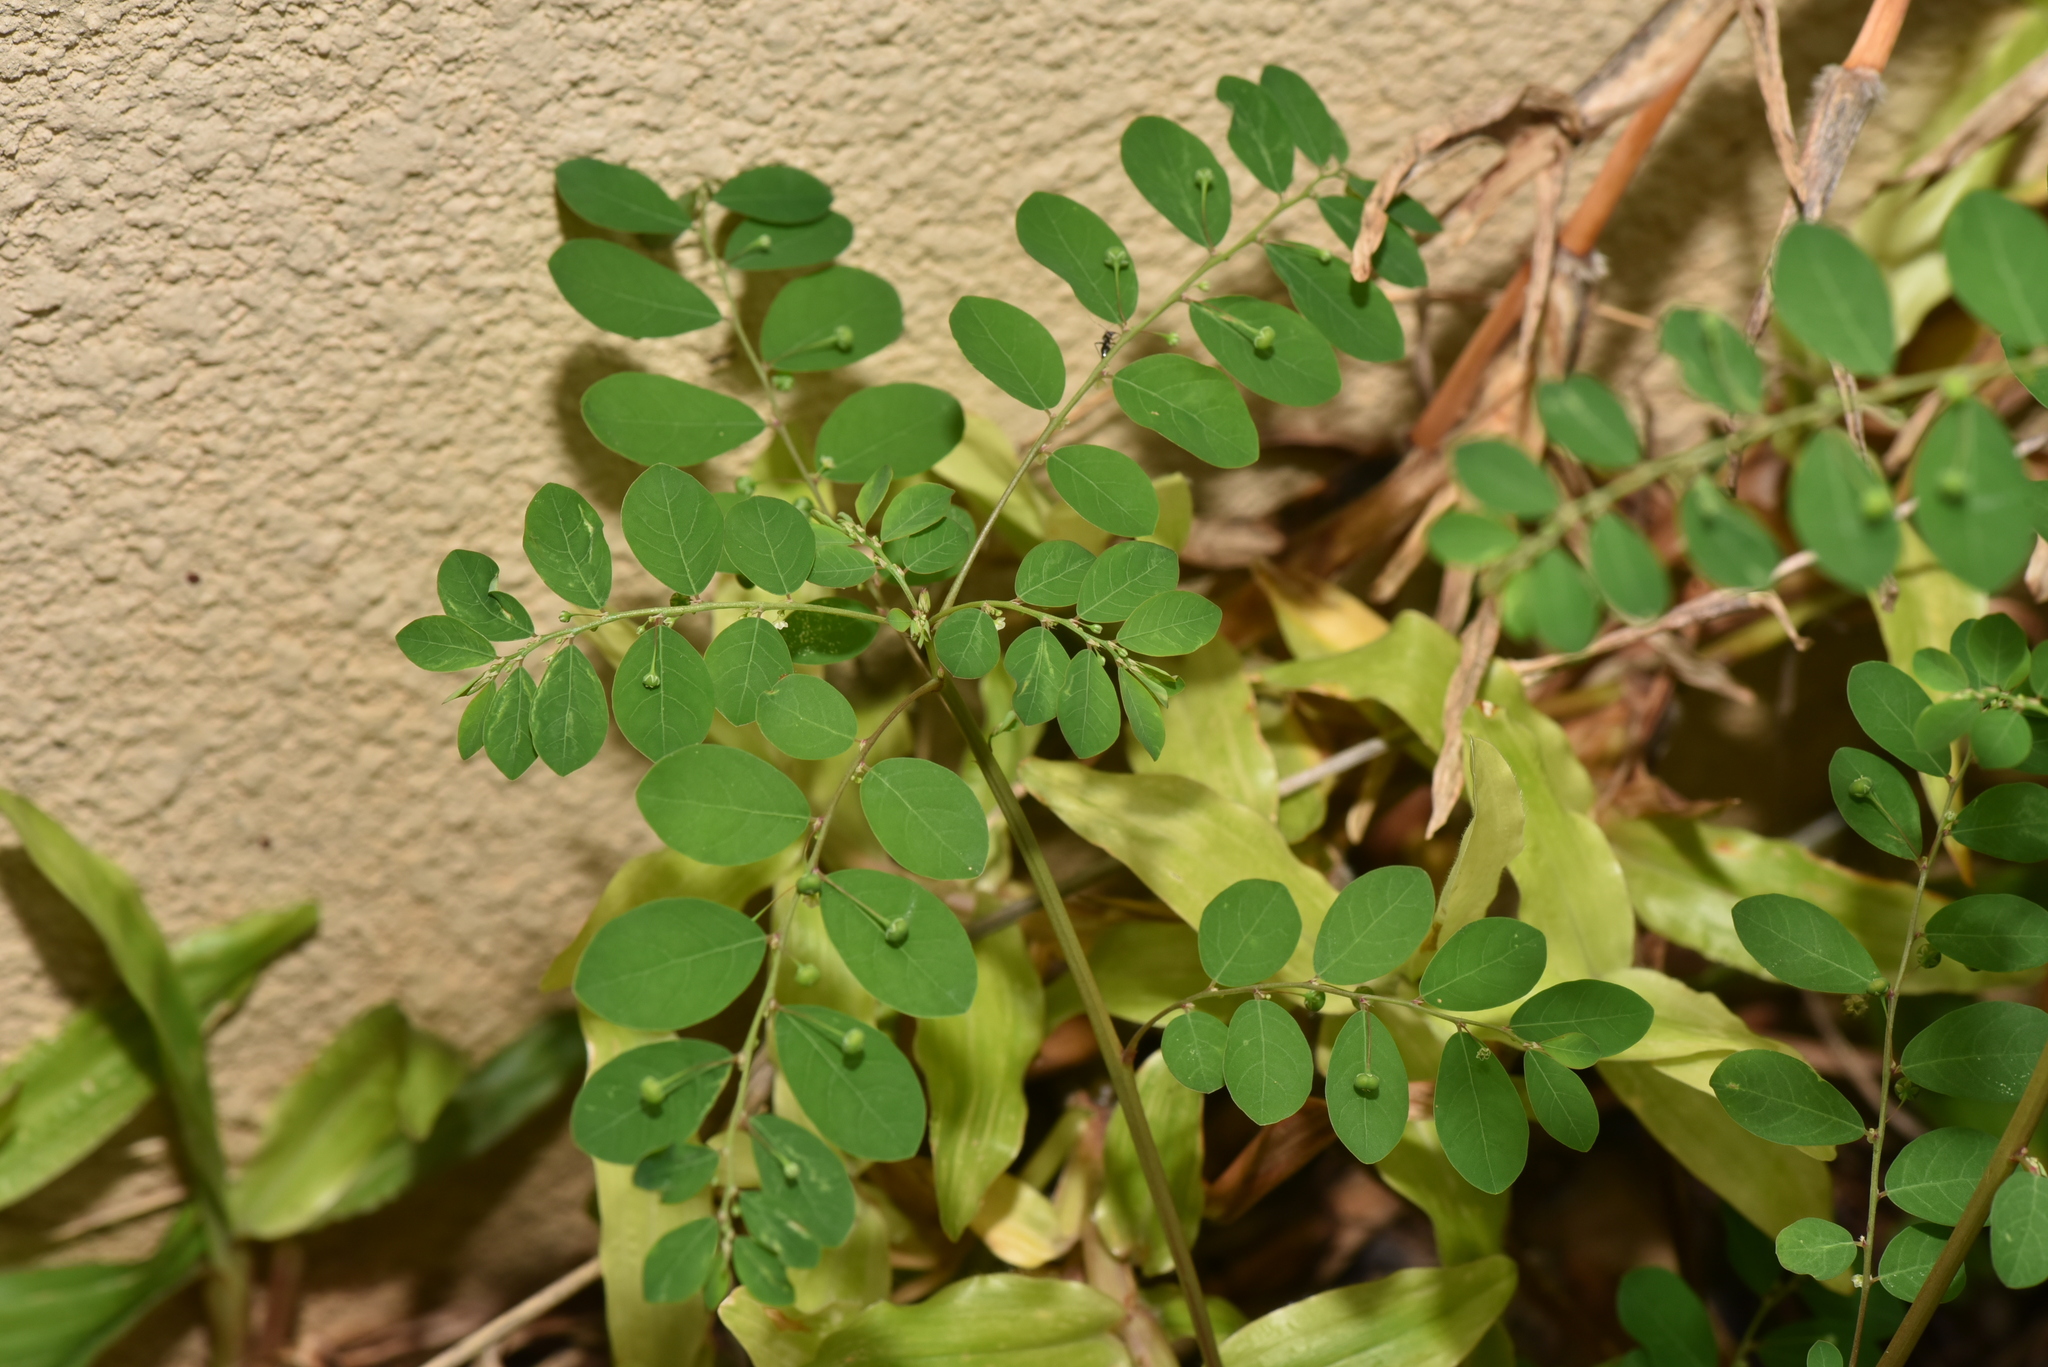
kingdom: Plantae
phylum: Tracheophyta
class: Magnoliopsida
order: Malpighiales
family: Phyllanthaceae
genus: Phyllanthus
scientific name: Phyllanthus tenellus
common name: Mascarene island leaf-flower
